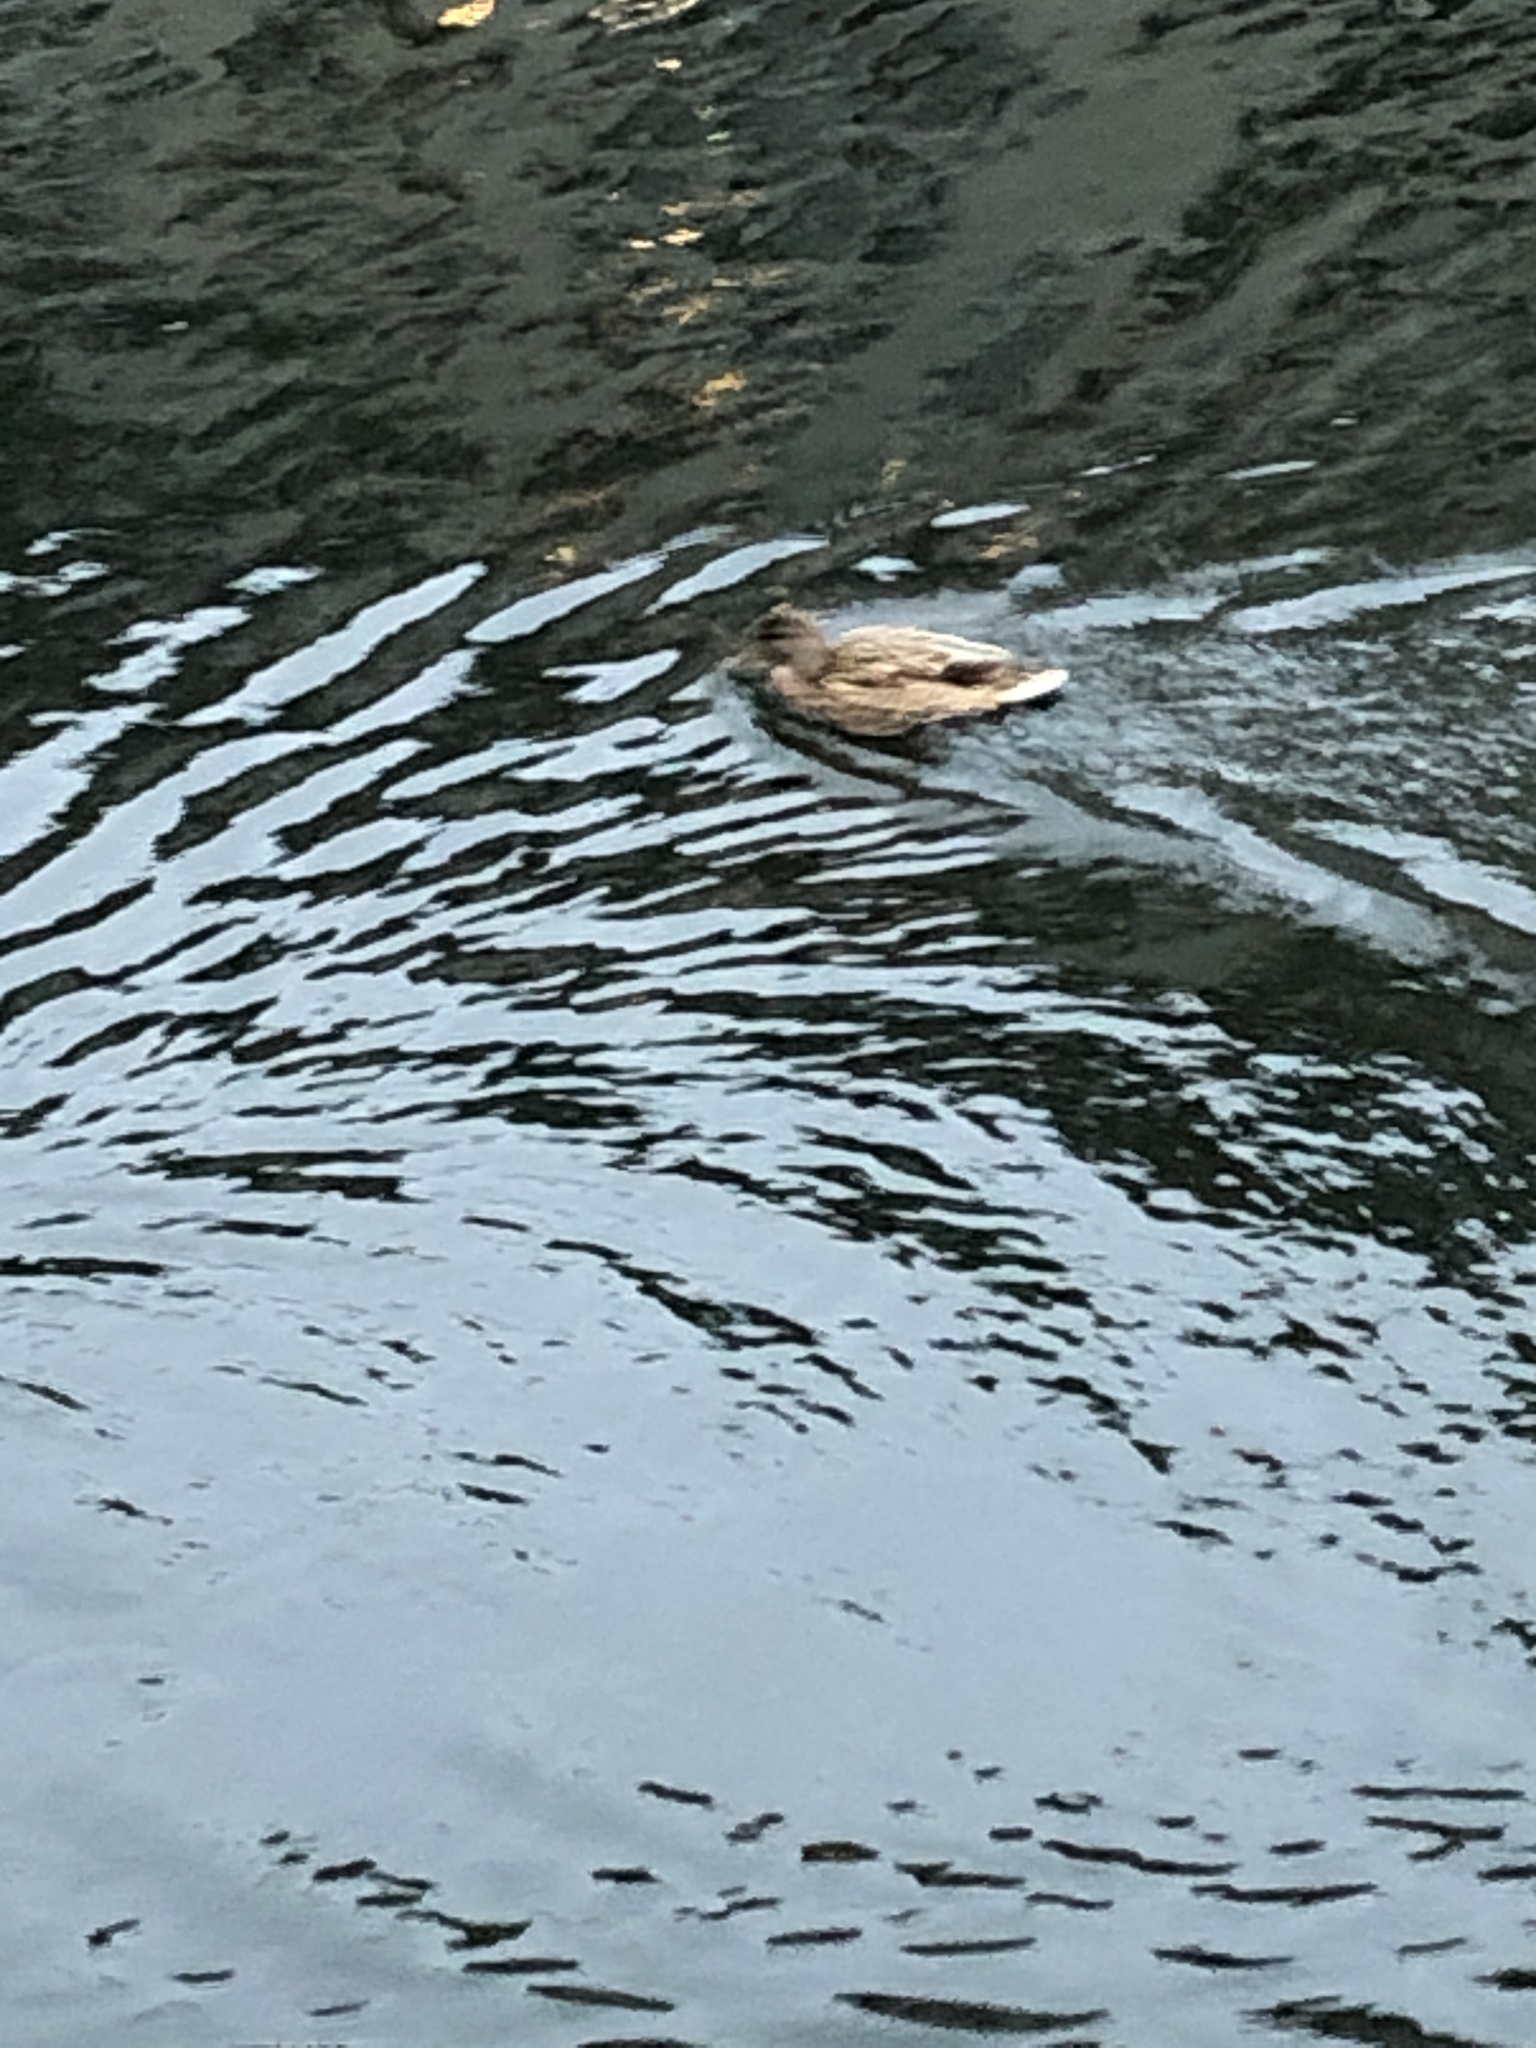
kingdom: Animalia
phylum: Chordata
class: Aves
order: Anseriformes
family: Anatidae
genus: Anas
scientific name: Anas platyrhynchos
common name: Mallard
